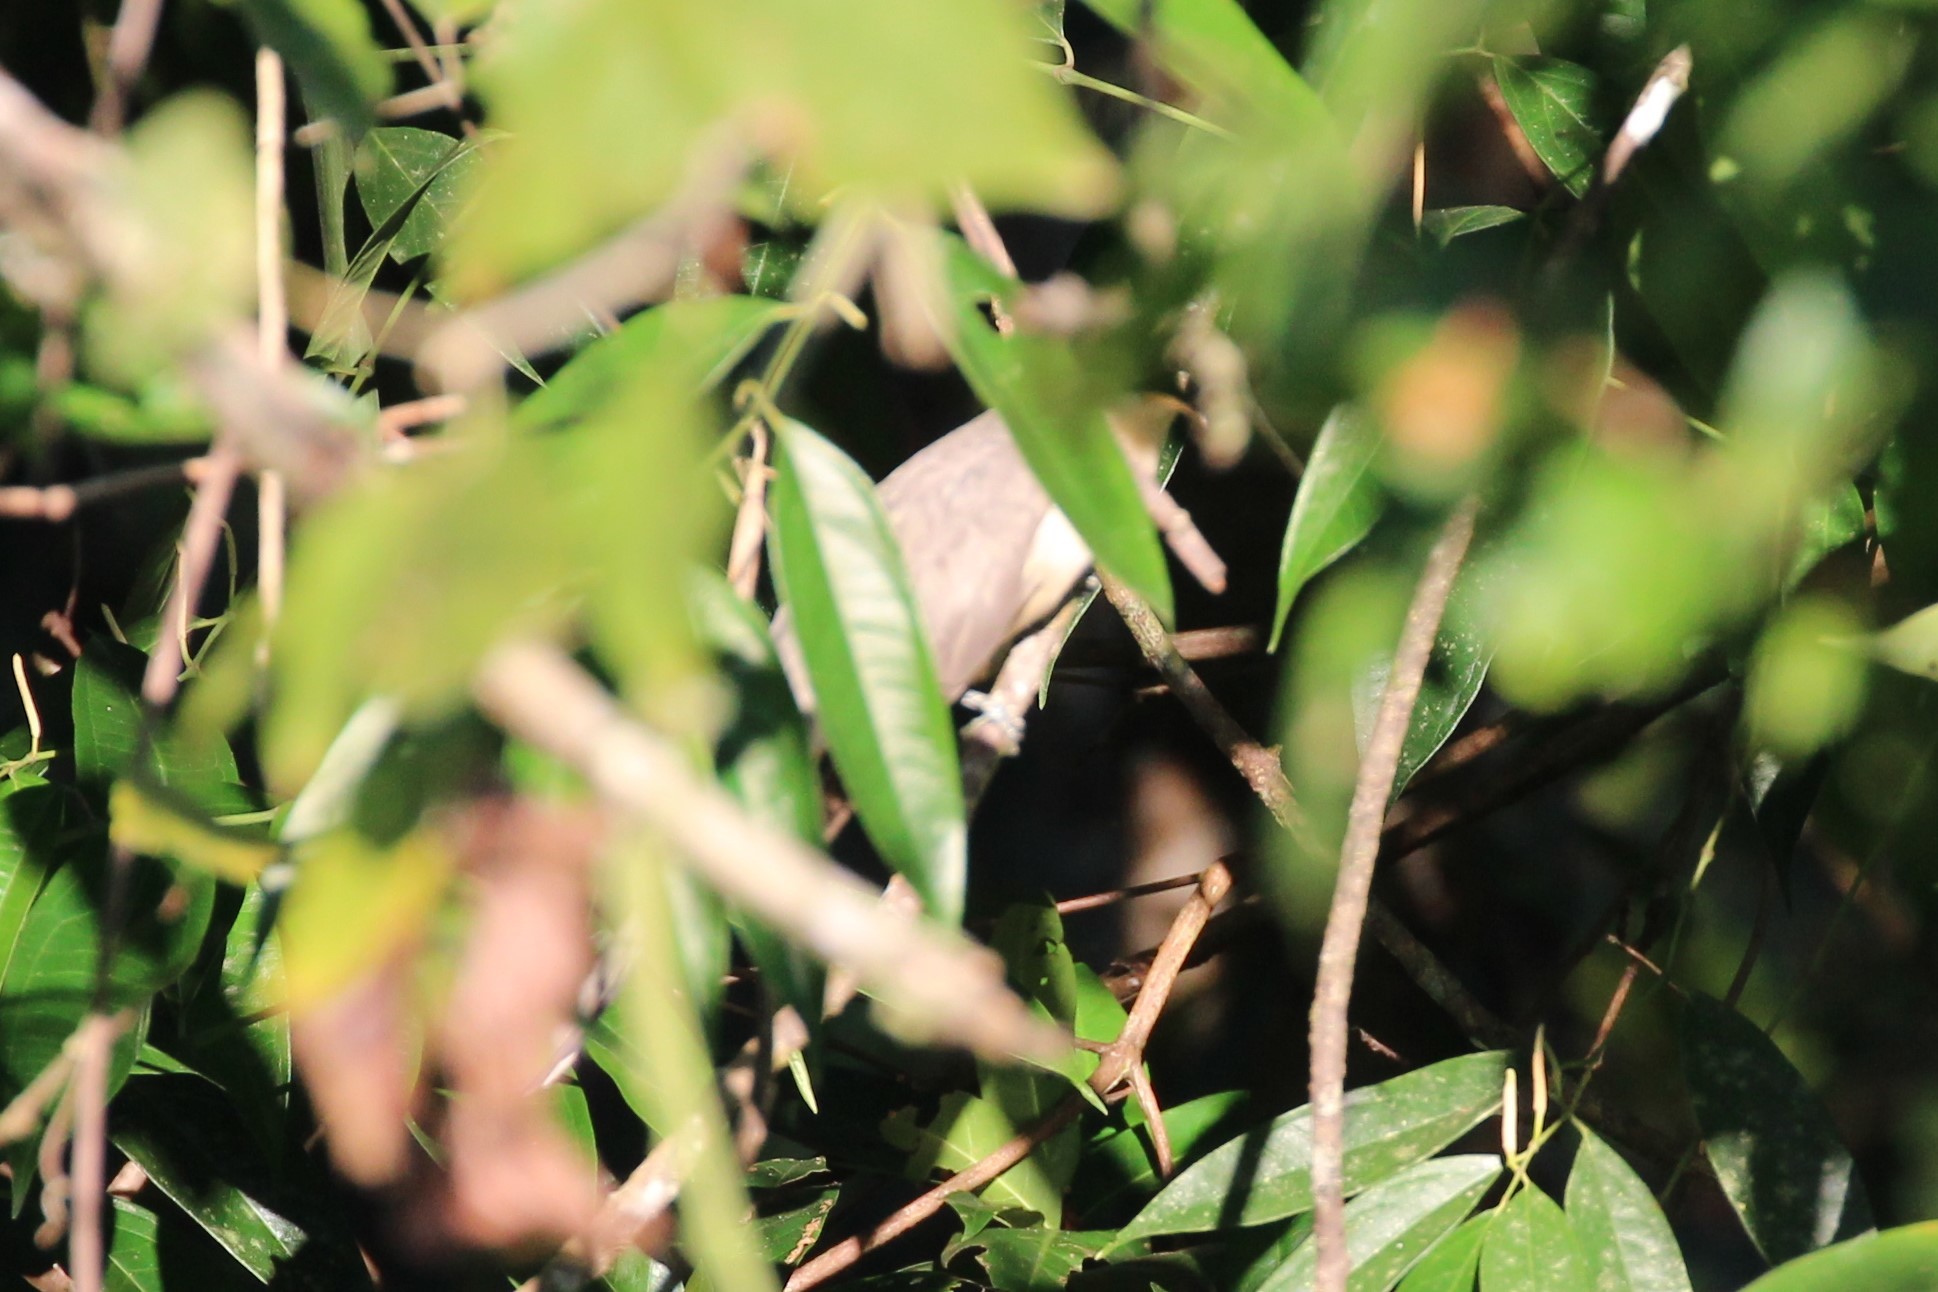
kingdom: Animalia
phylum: Chordata
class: Aves
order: Cuculiformes
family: Cuculidae
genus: Coccyzus
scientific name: Coccyzus minor
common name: Mangrove cuckoo
